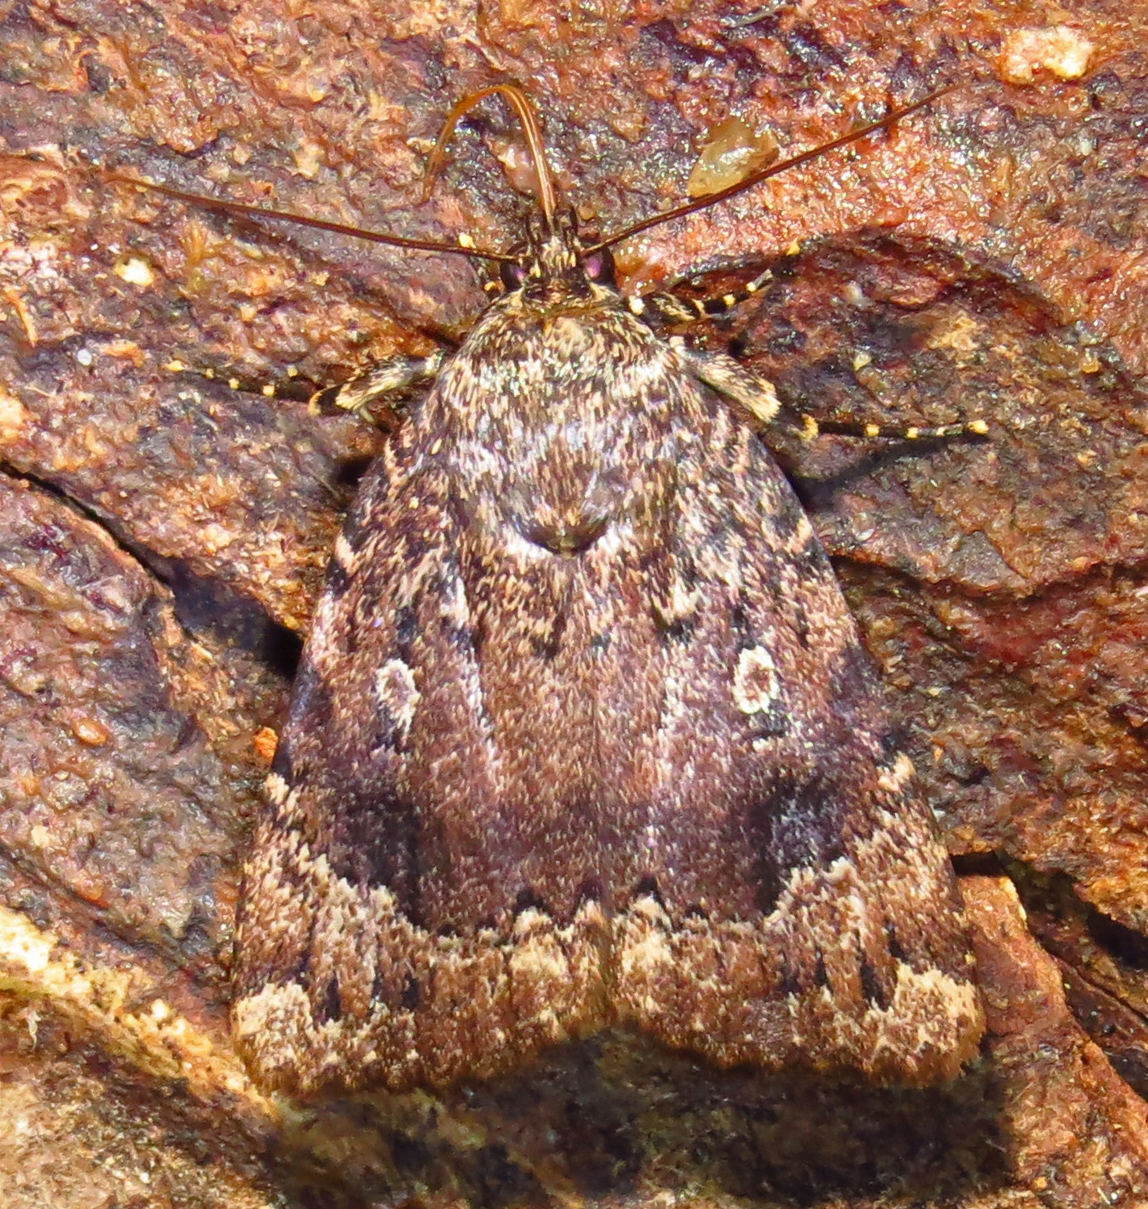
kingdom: Animalia
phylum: Arthropoda
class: Insecta
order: Lepidoptera
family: Noctuidae
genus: Amphipyra
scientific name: Amphipyra pyramidoides
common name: American copper underwing
